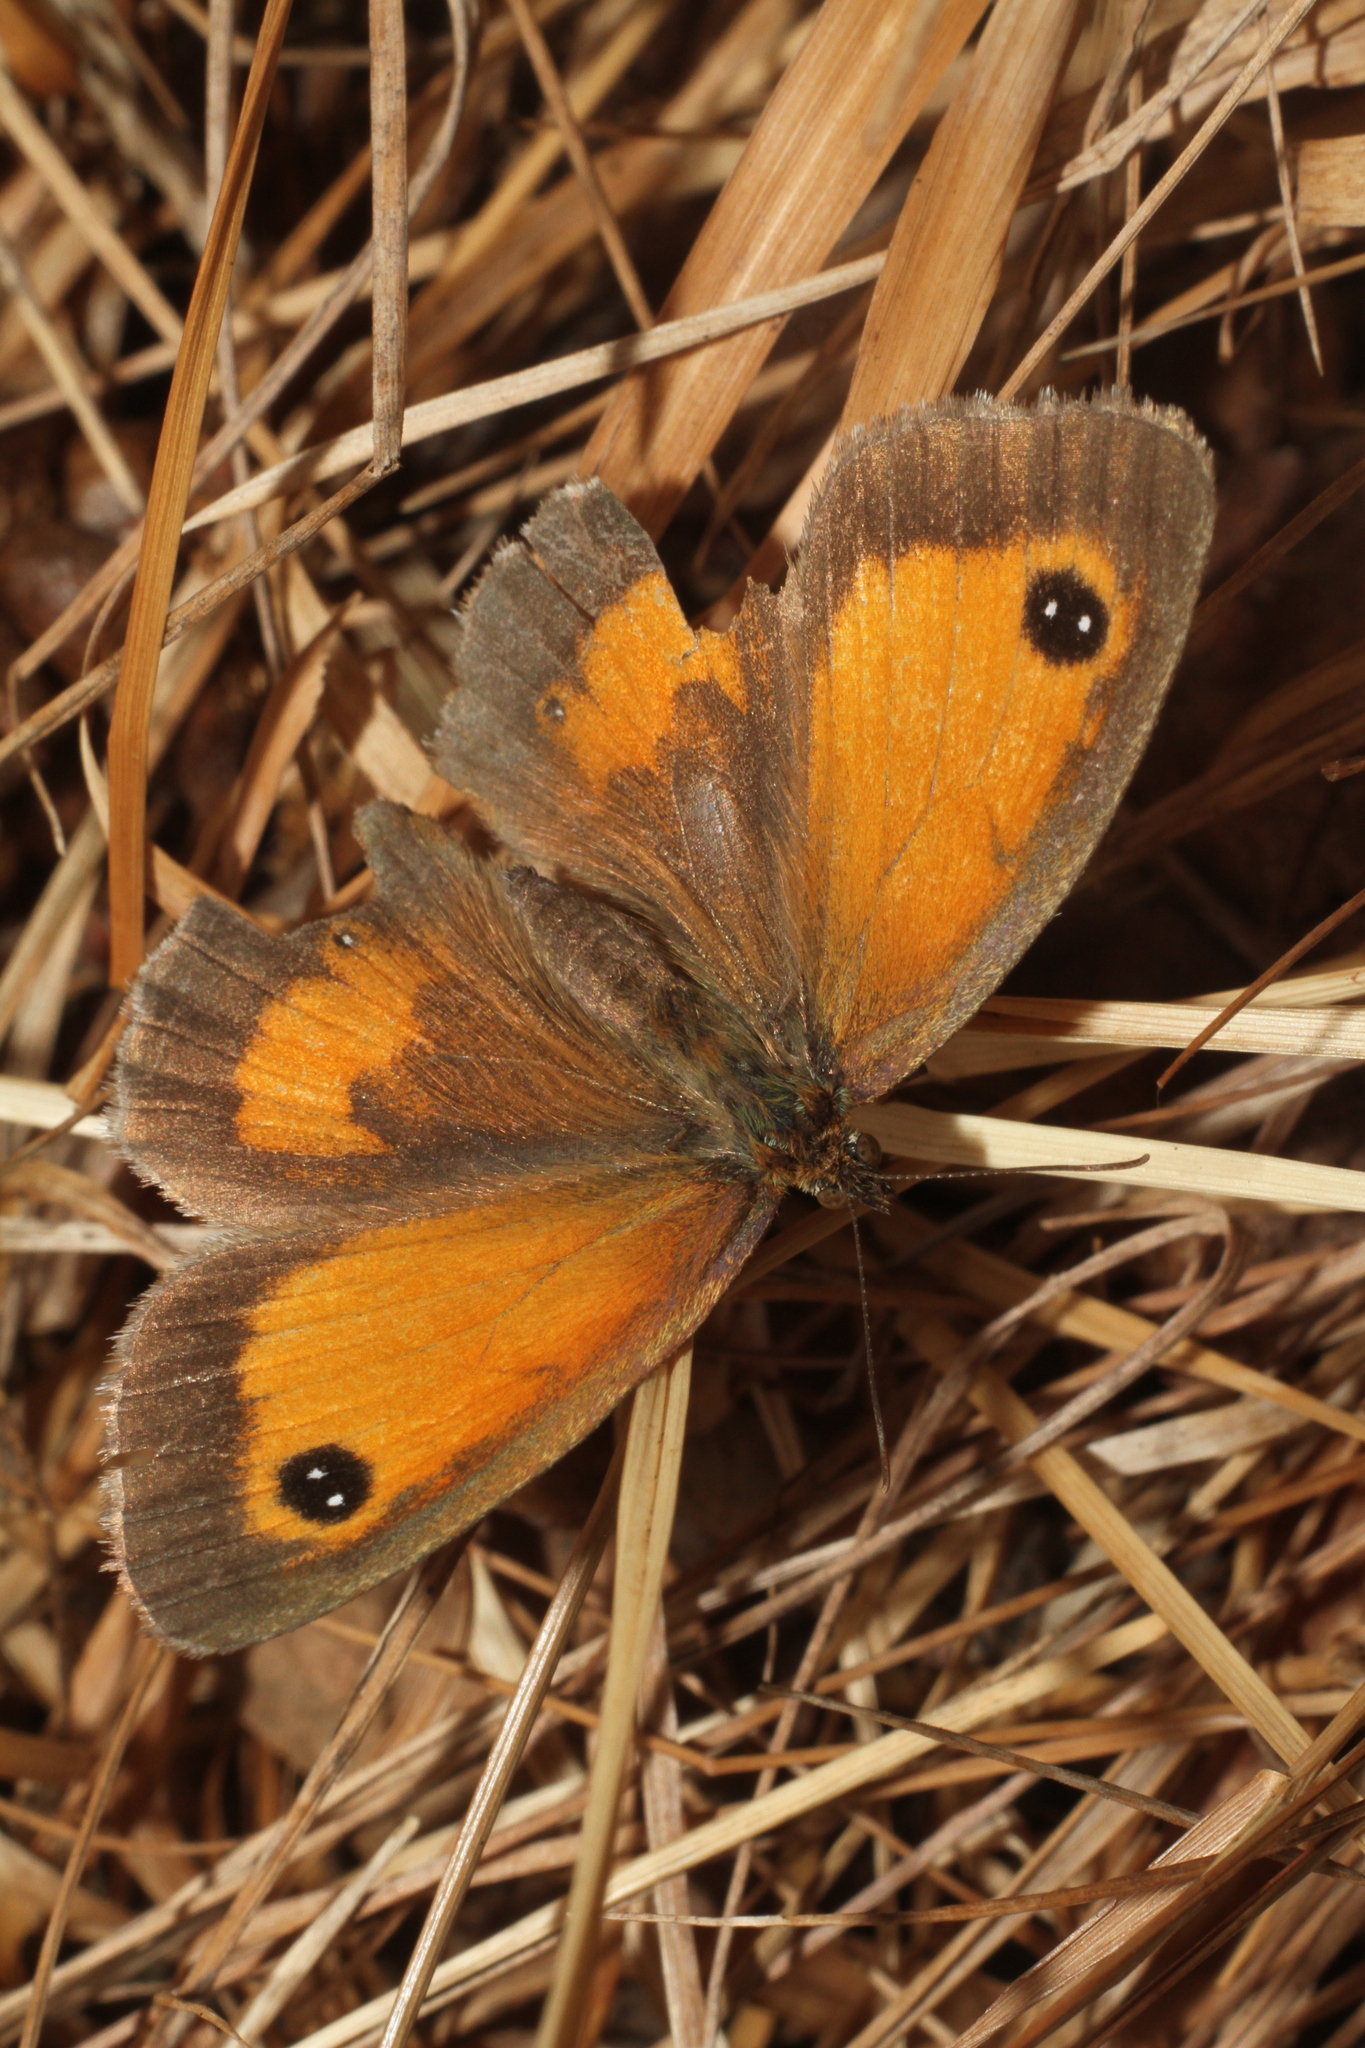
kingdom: Animalia
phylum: Arthropoda
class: Insecta
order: Lepidoptera
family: Nymphalidae
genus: Pyronia
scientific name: Pyronia tithonus
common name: Gatekeeper
